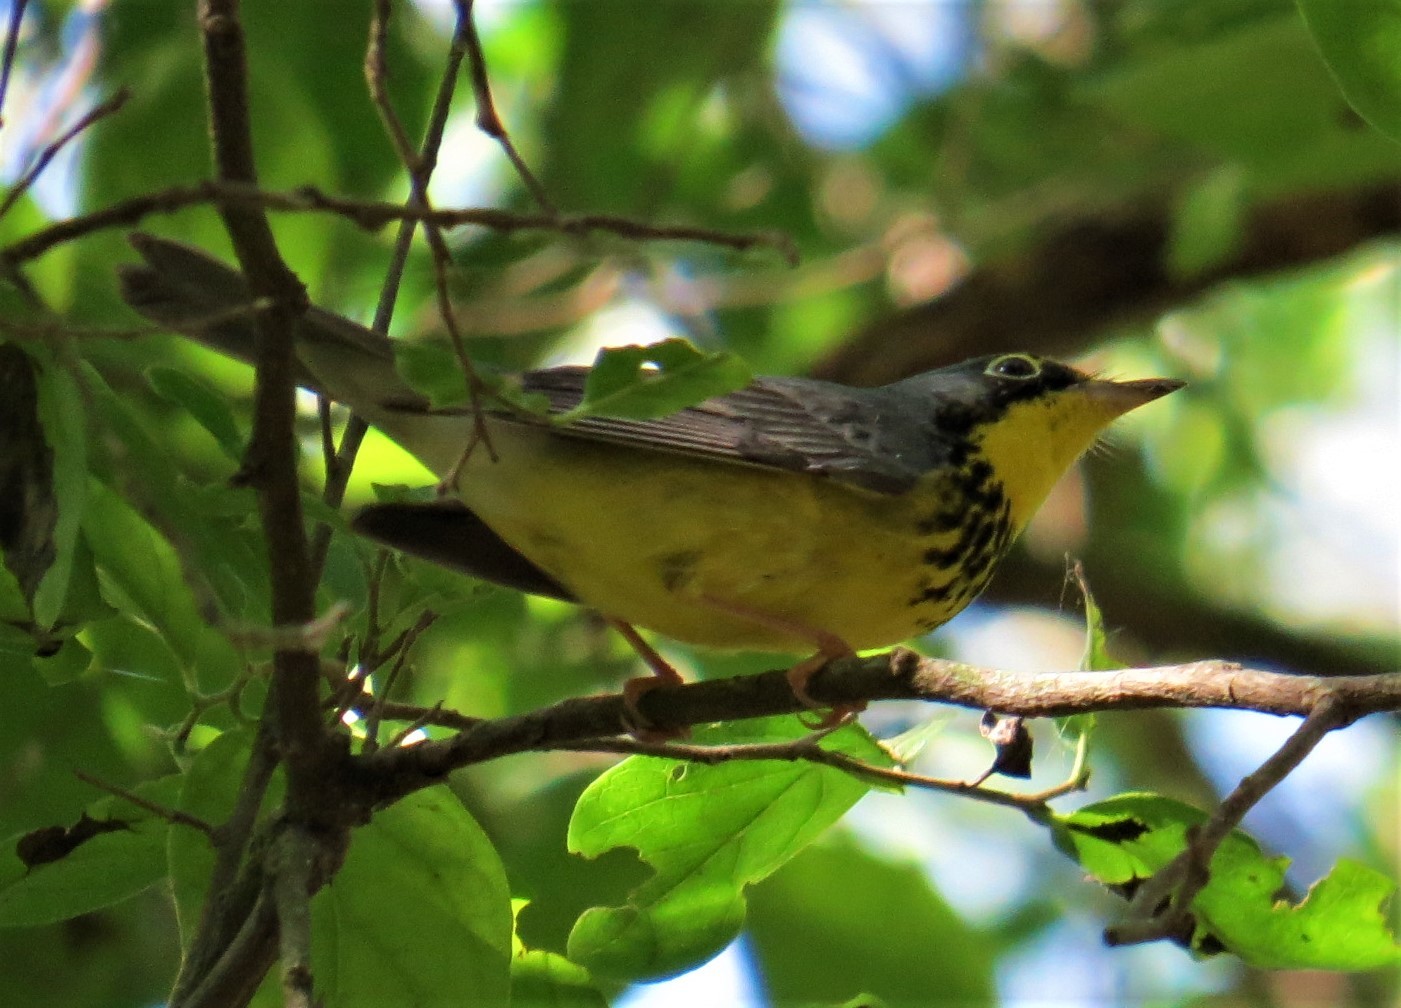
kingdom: Animalia
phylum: Chordata
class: Aves
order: Passeriformes
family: Parulidae
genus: Cardellina
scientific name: Cardellina canadensis
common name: Canada warbler
